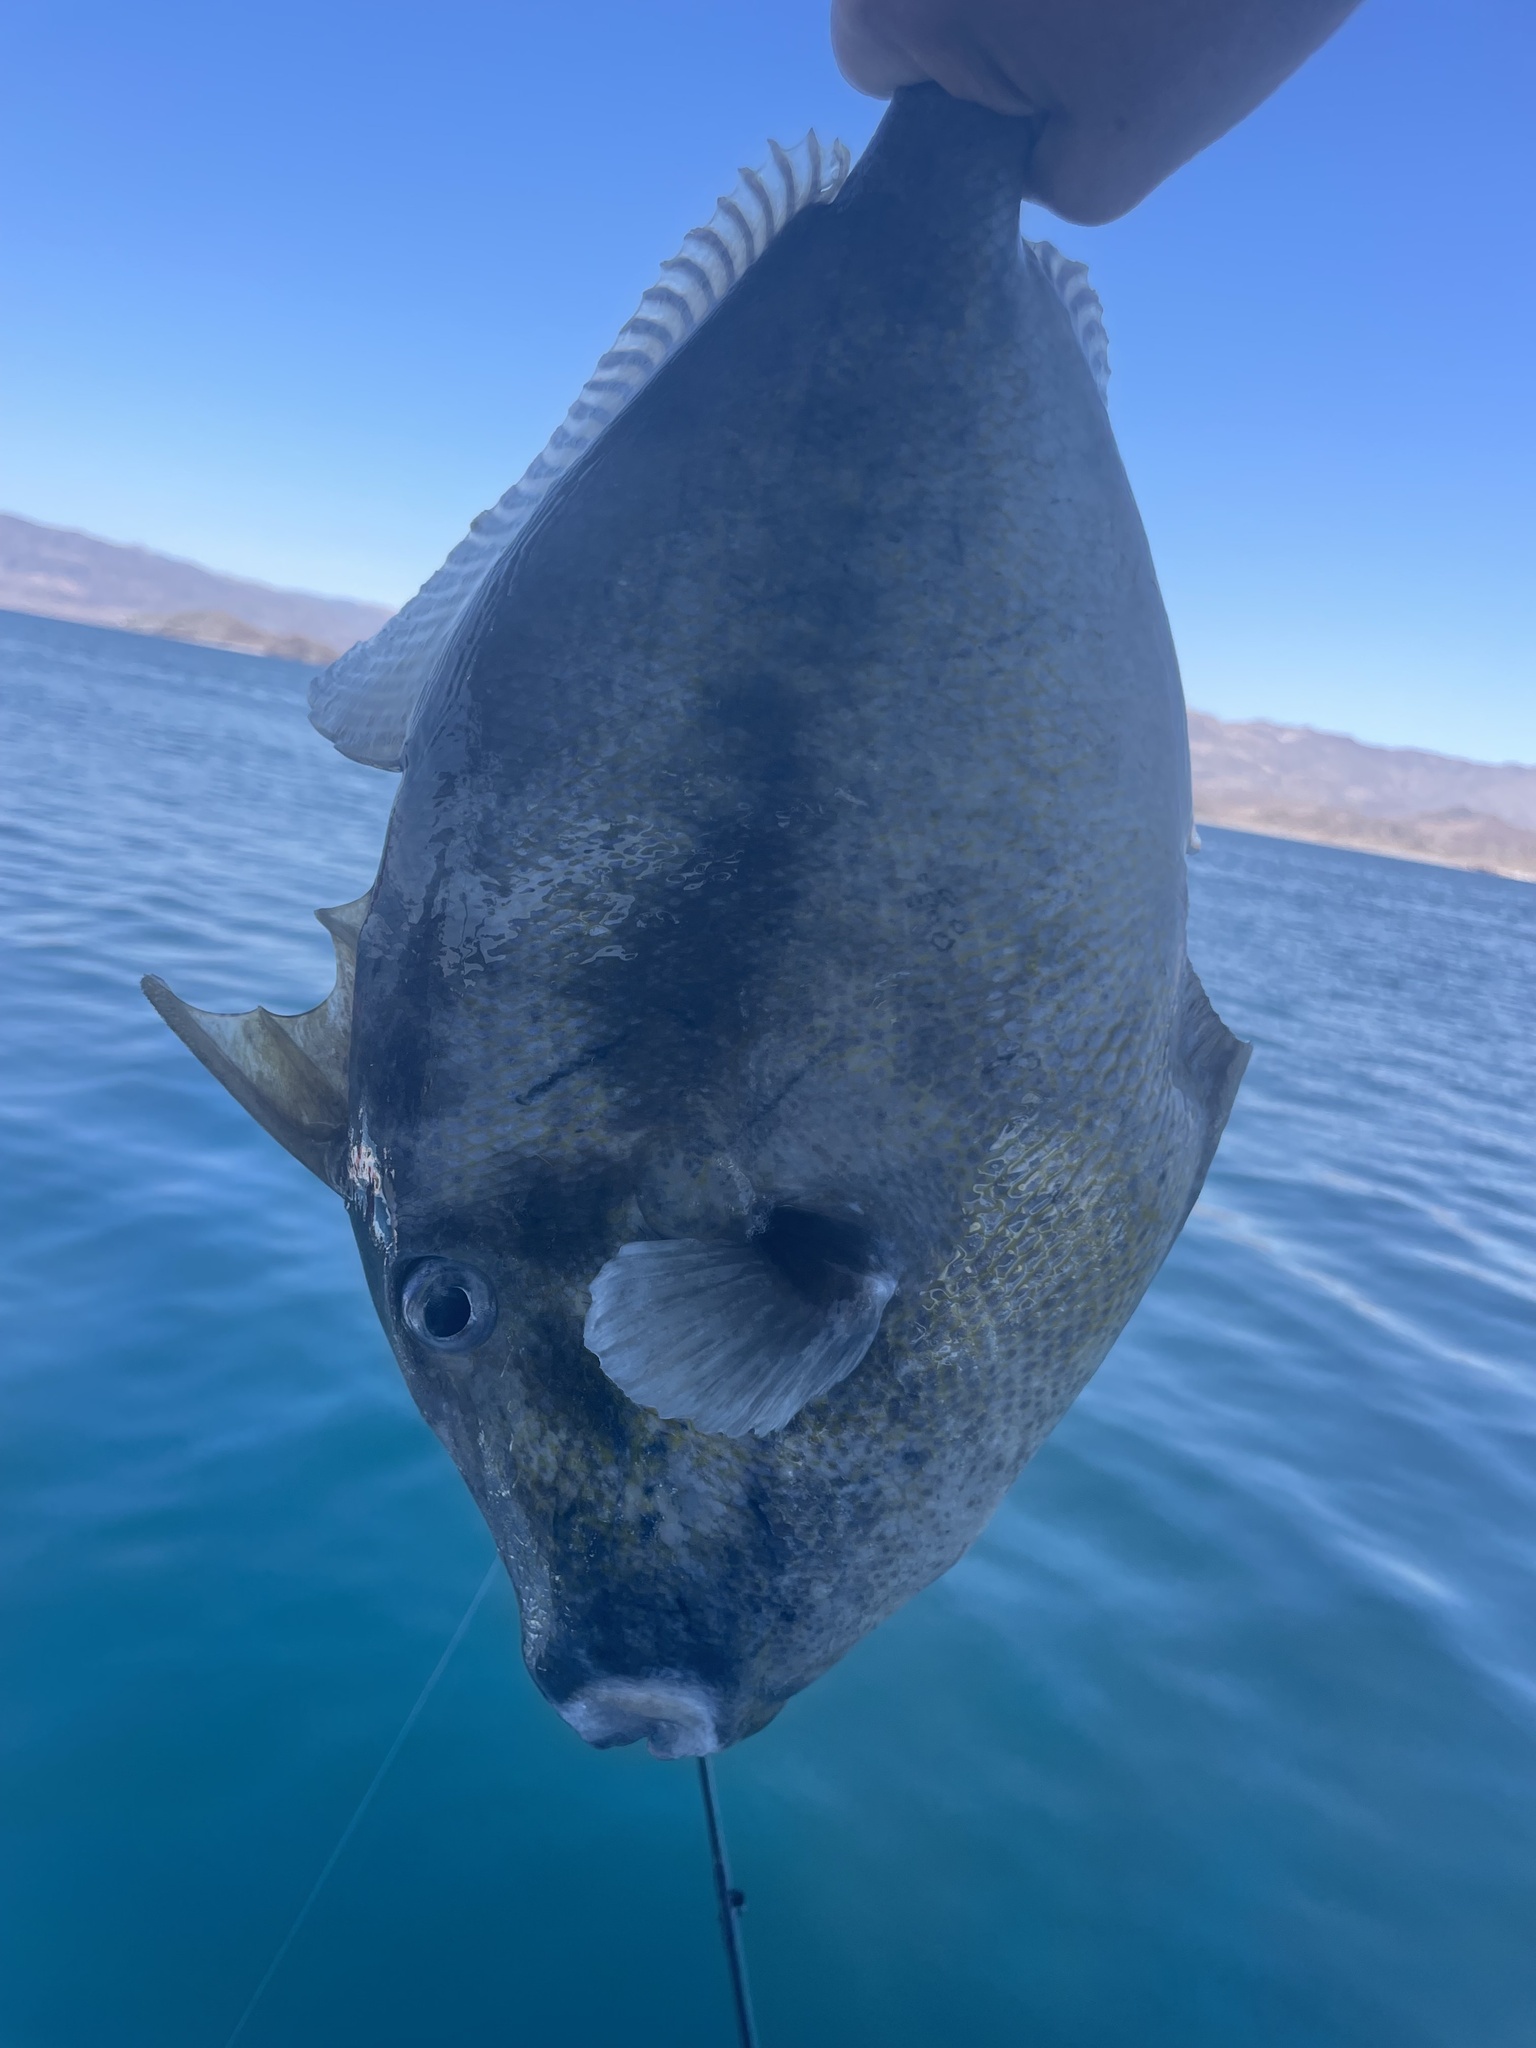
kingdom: Animalia
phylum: Chordata
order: Tetraodontiformes
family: Balistidae
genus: Balistes
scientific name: Balistes polylepis
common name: Finescale triggerfish
